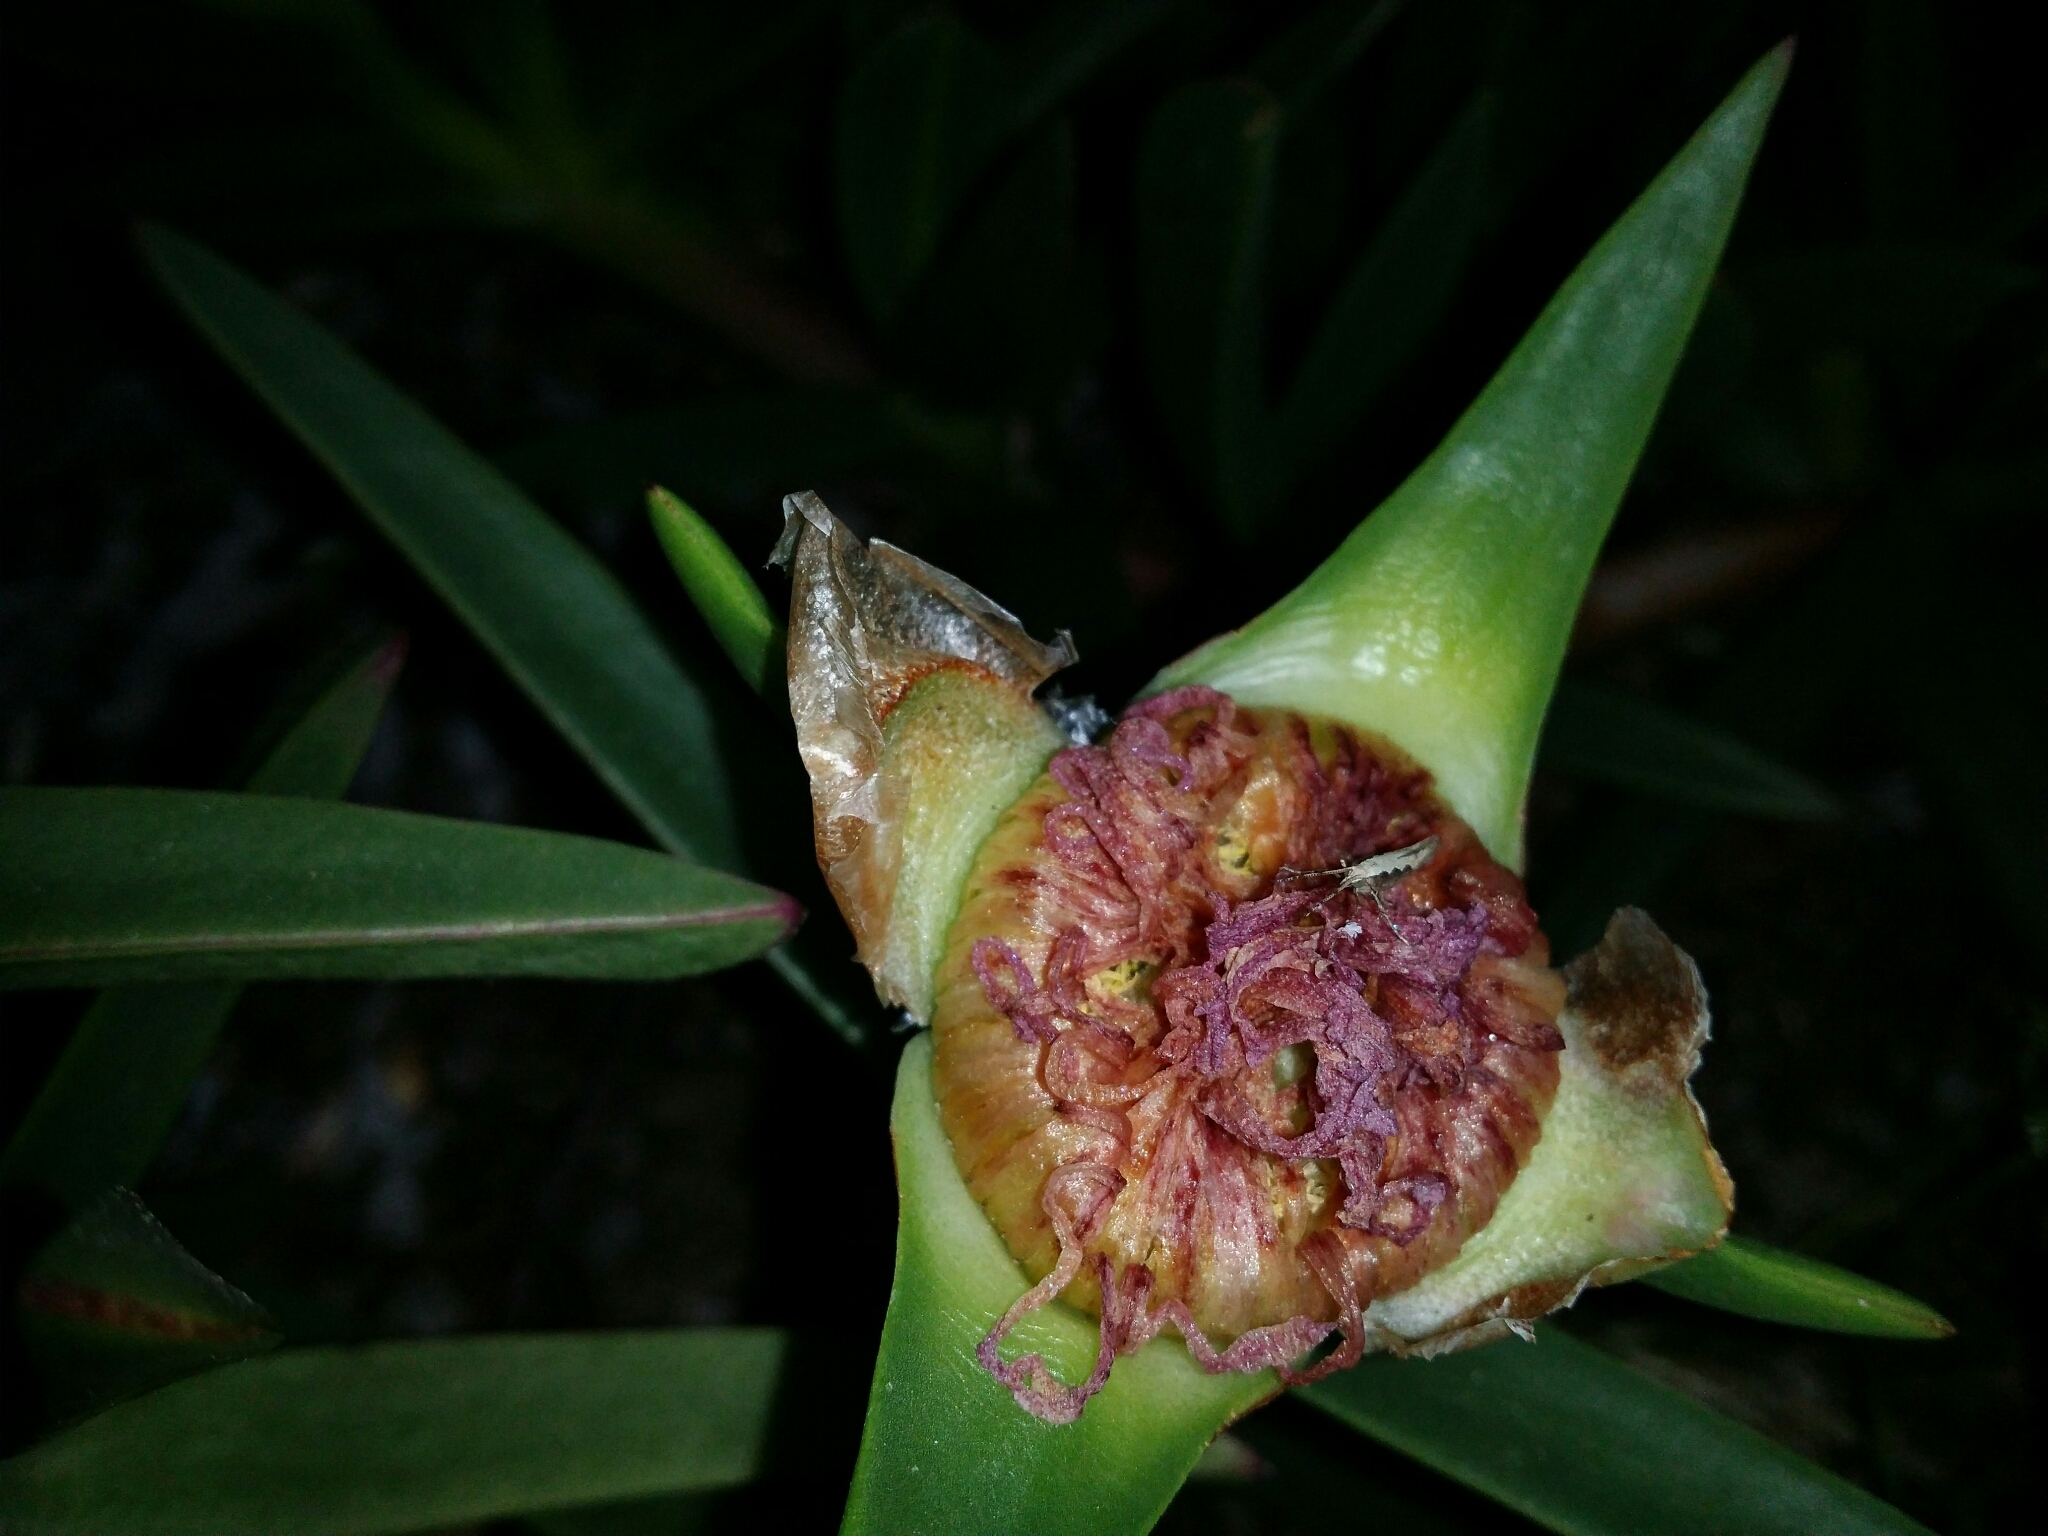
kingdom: Animalia
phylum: Arthropoda
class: Insecta
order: Lepidoptera
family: Plutellidae
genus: Plutella
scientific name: Plutella xylostella
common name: Diamond-back moth
